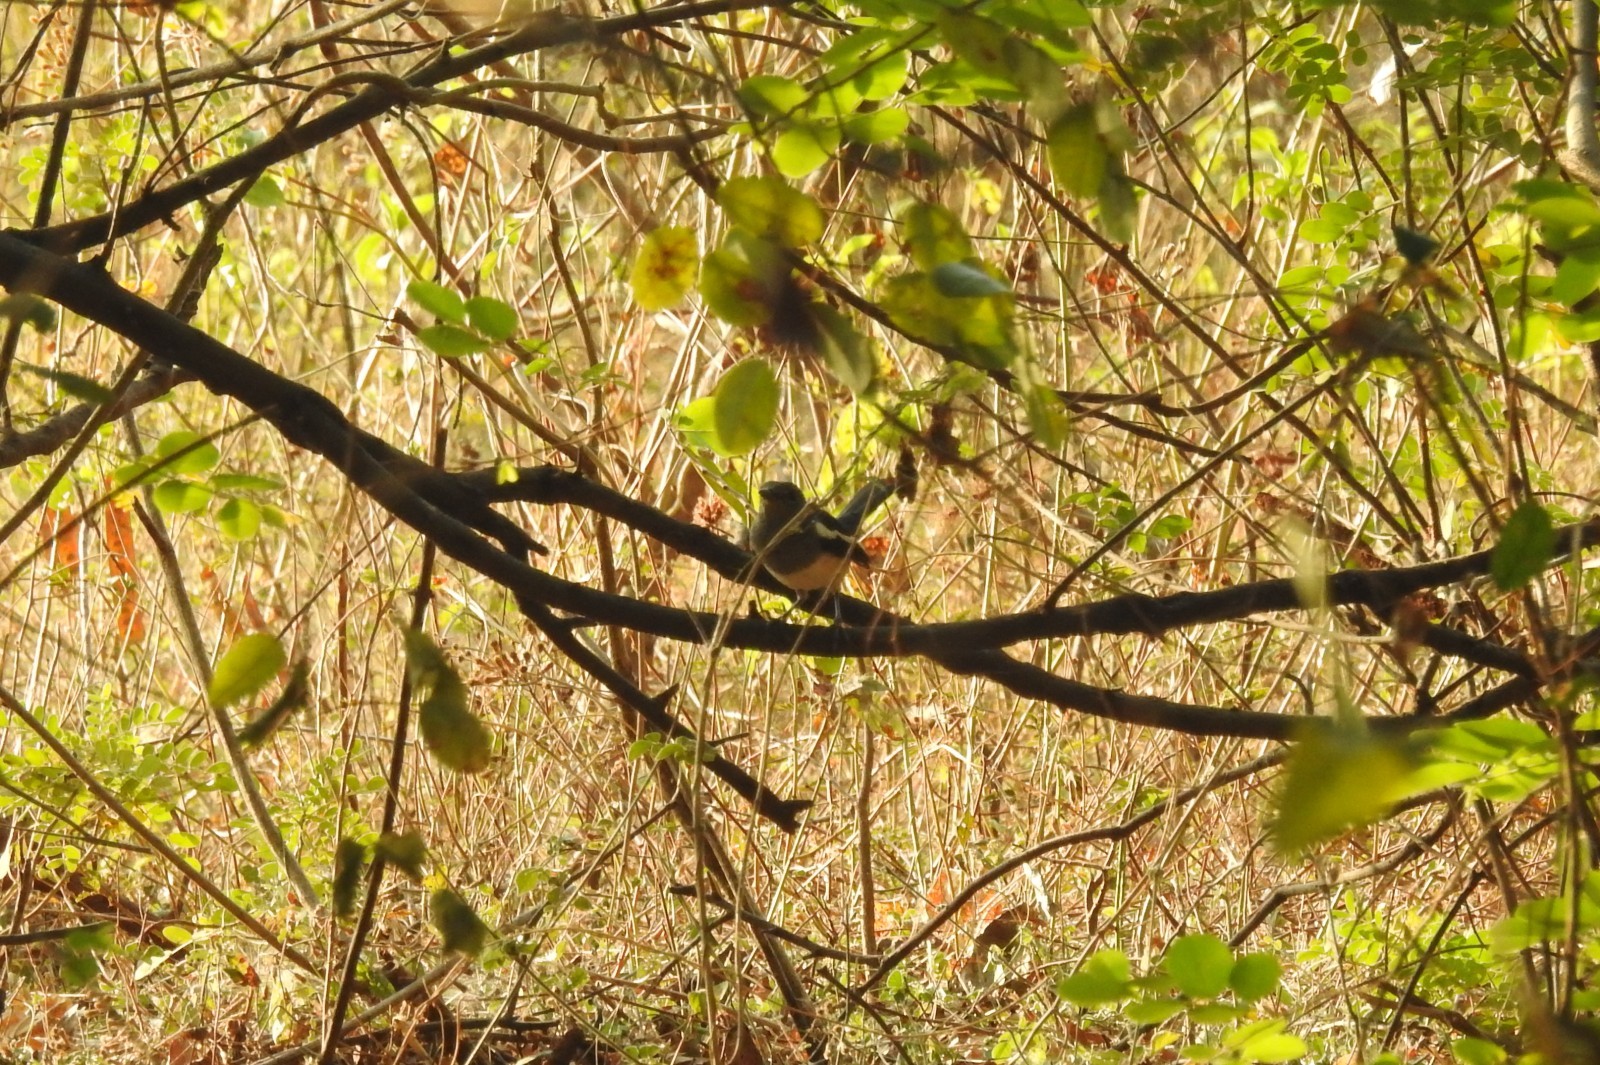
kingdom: Animalia
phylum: Chordata
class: Aves
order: Passeriformes
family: Muscicapidae
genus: Copsychus
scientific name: Copsychus saularis
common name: Oriental magpie-robin
